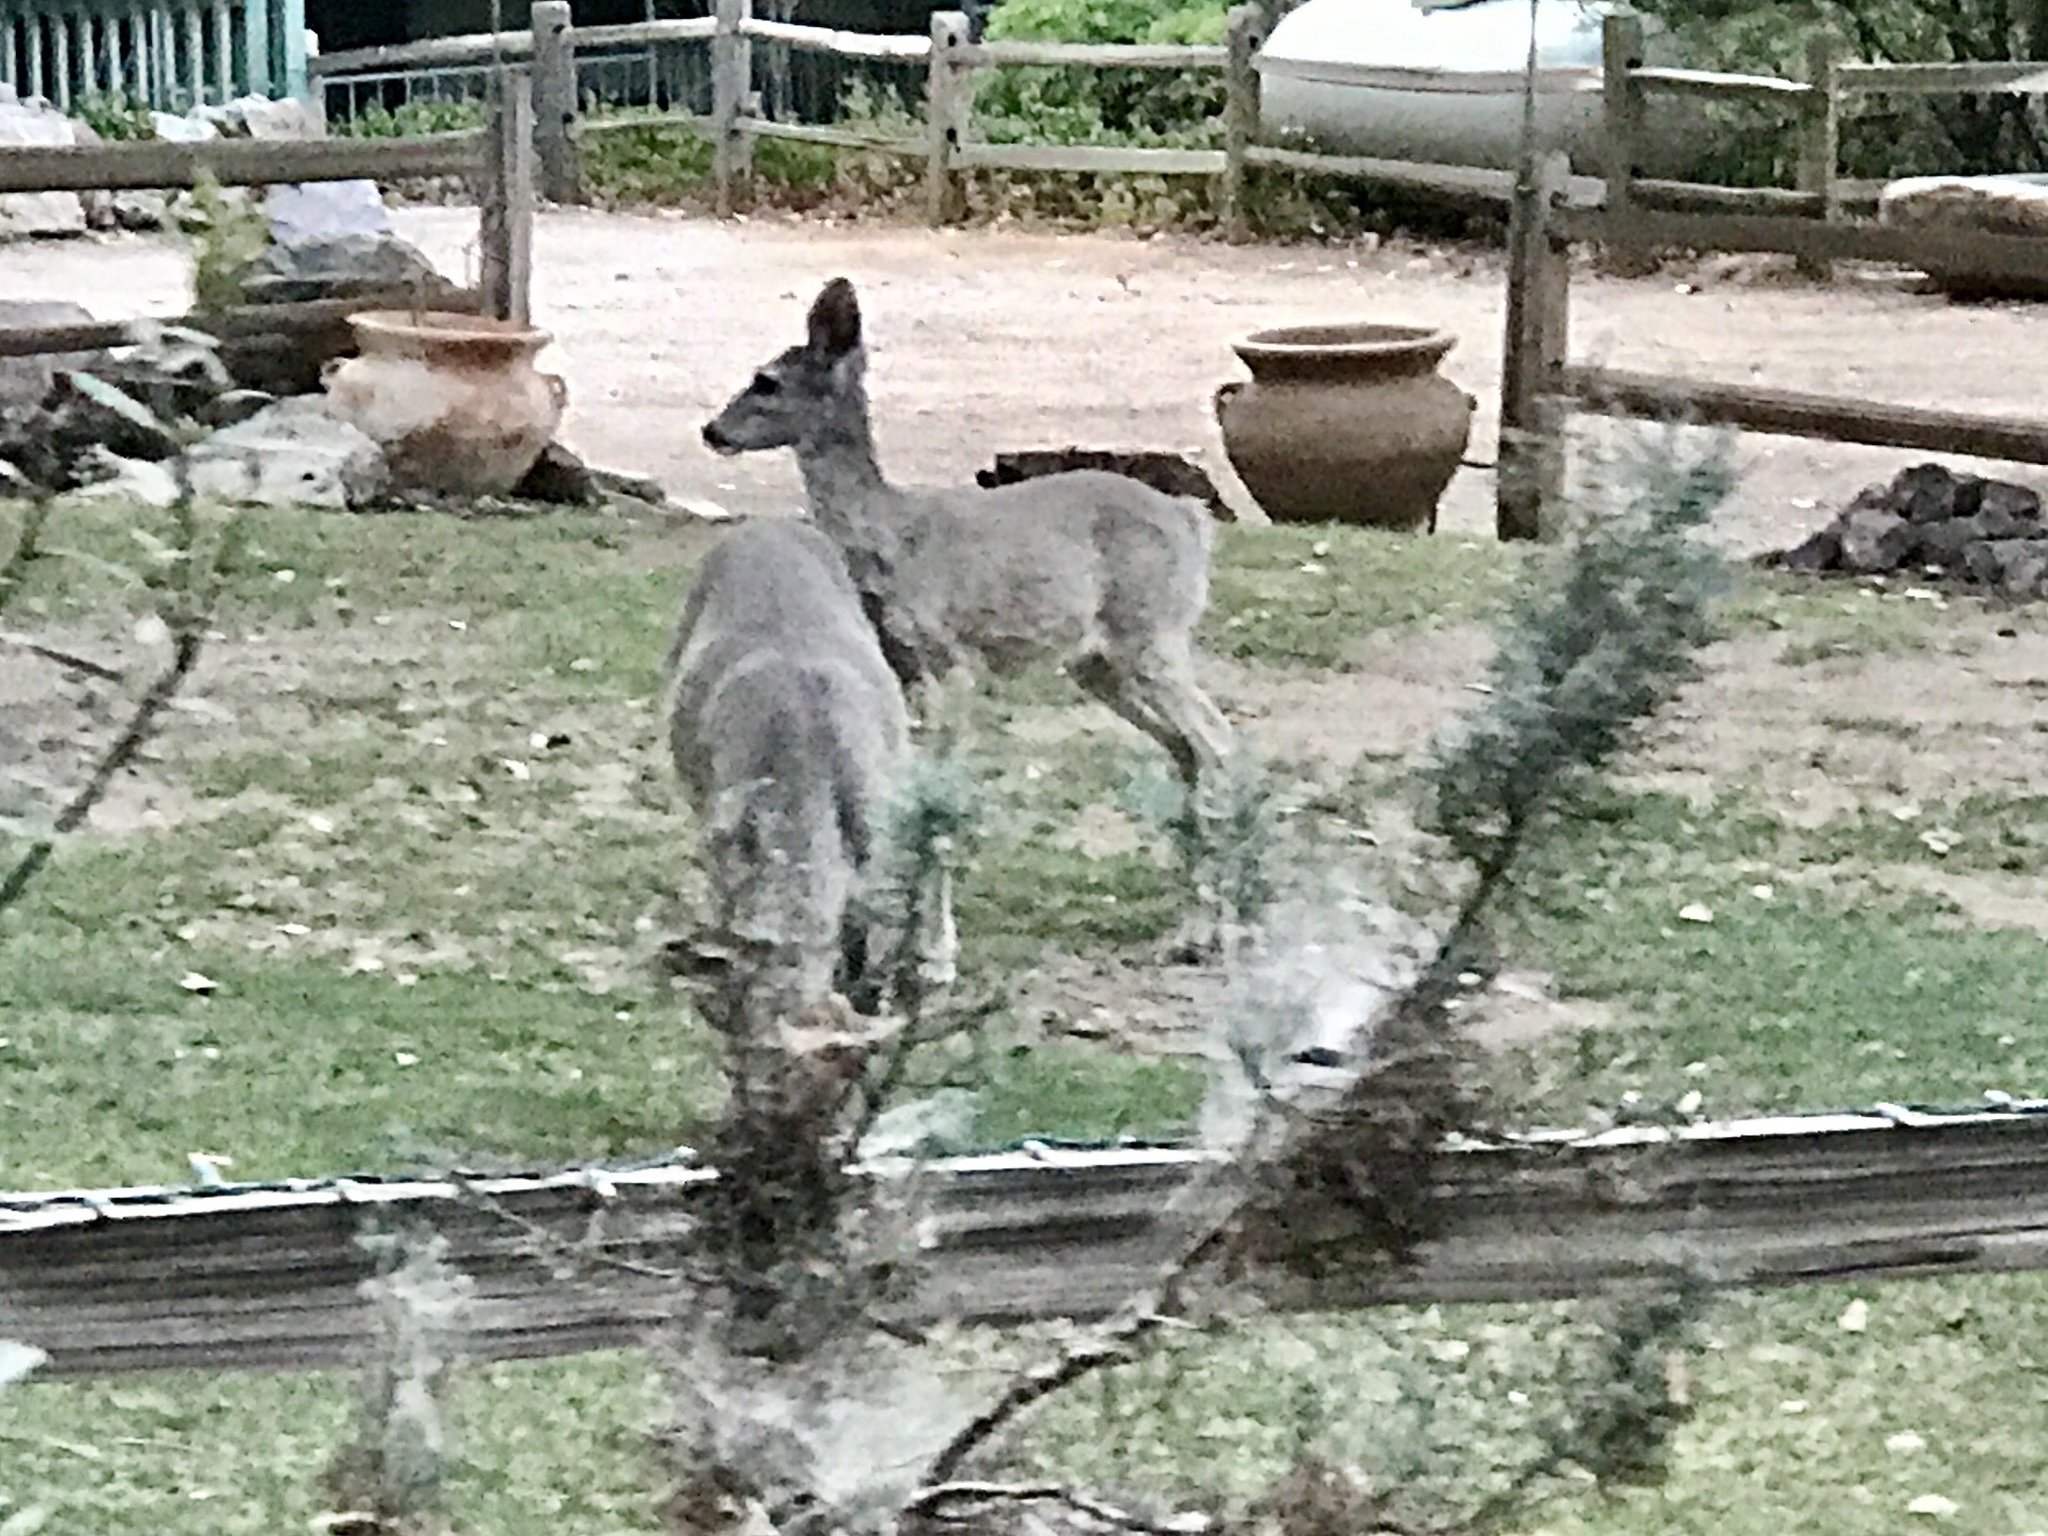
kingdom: Animalia
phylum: Chordata
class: Mammalia
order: Artiodactyla
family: Cervidae
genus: Odocoileus
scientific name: Odocoileus virginianus
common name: White-tailed deer
